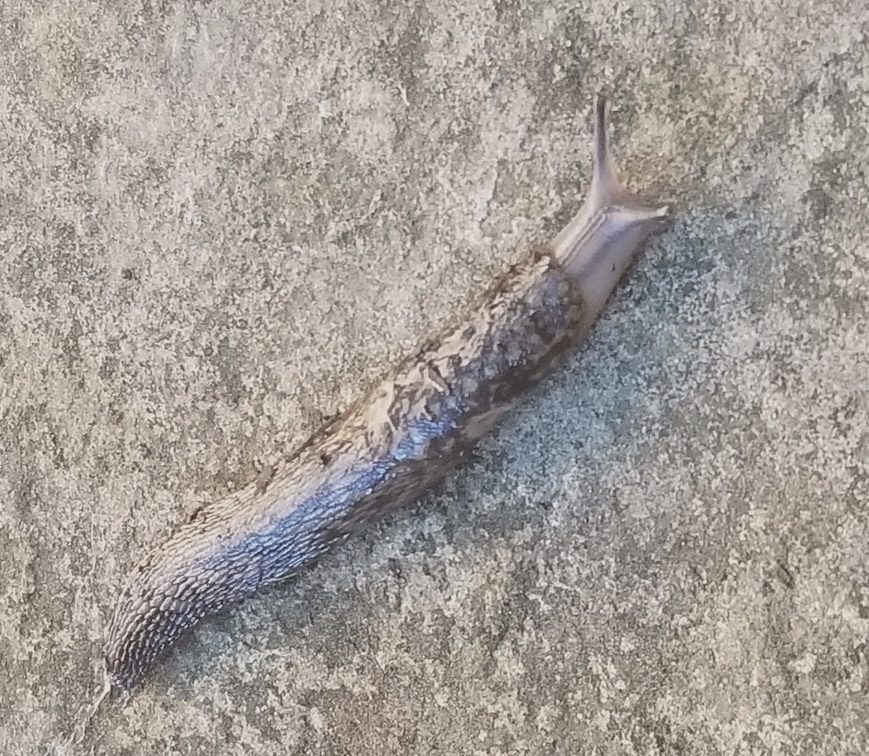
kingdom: Animalia
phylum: Mollusca
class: Gastropoda
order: Stylommatophora
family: Limacidae
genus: Limacus
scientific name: Limacus flavus
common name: Yellow gardenslug
